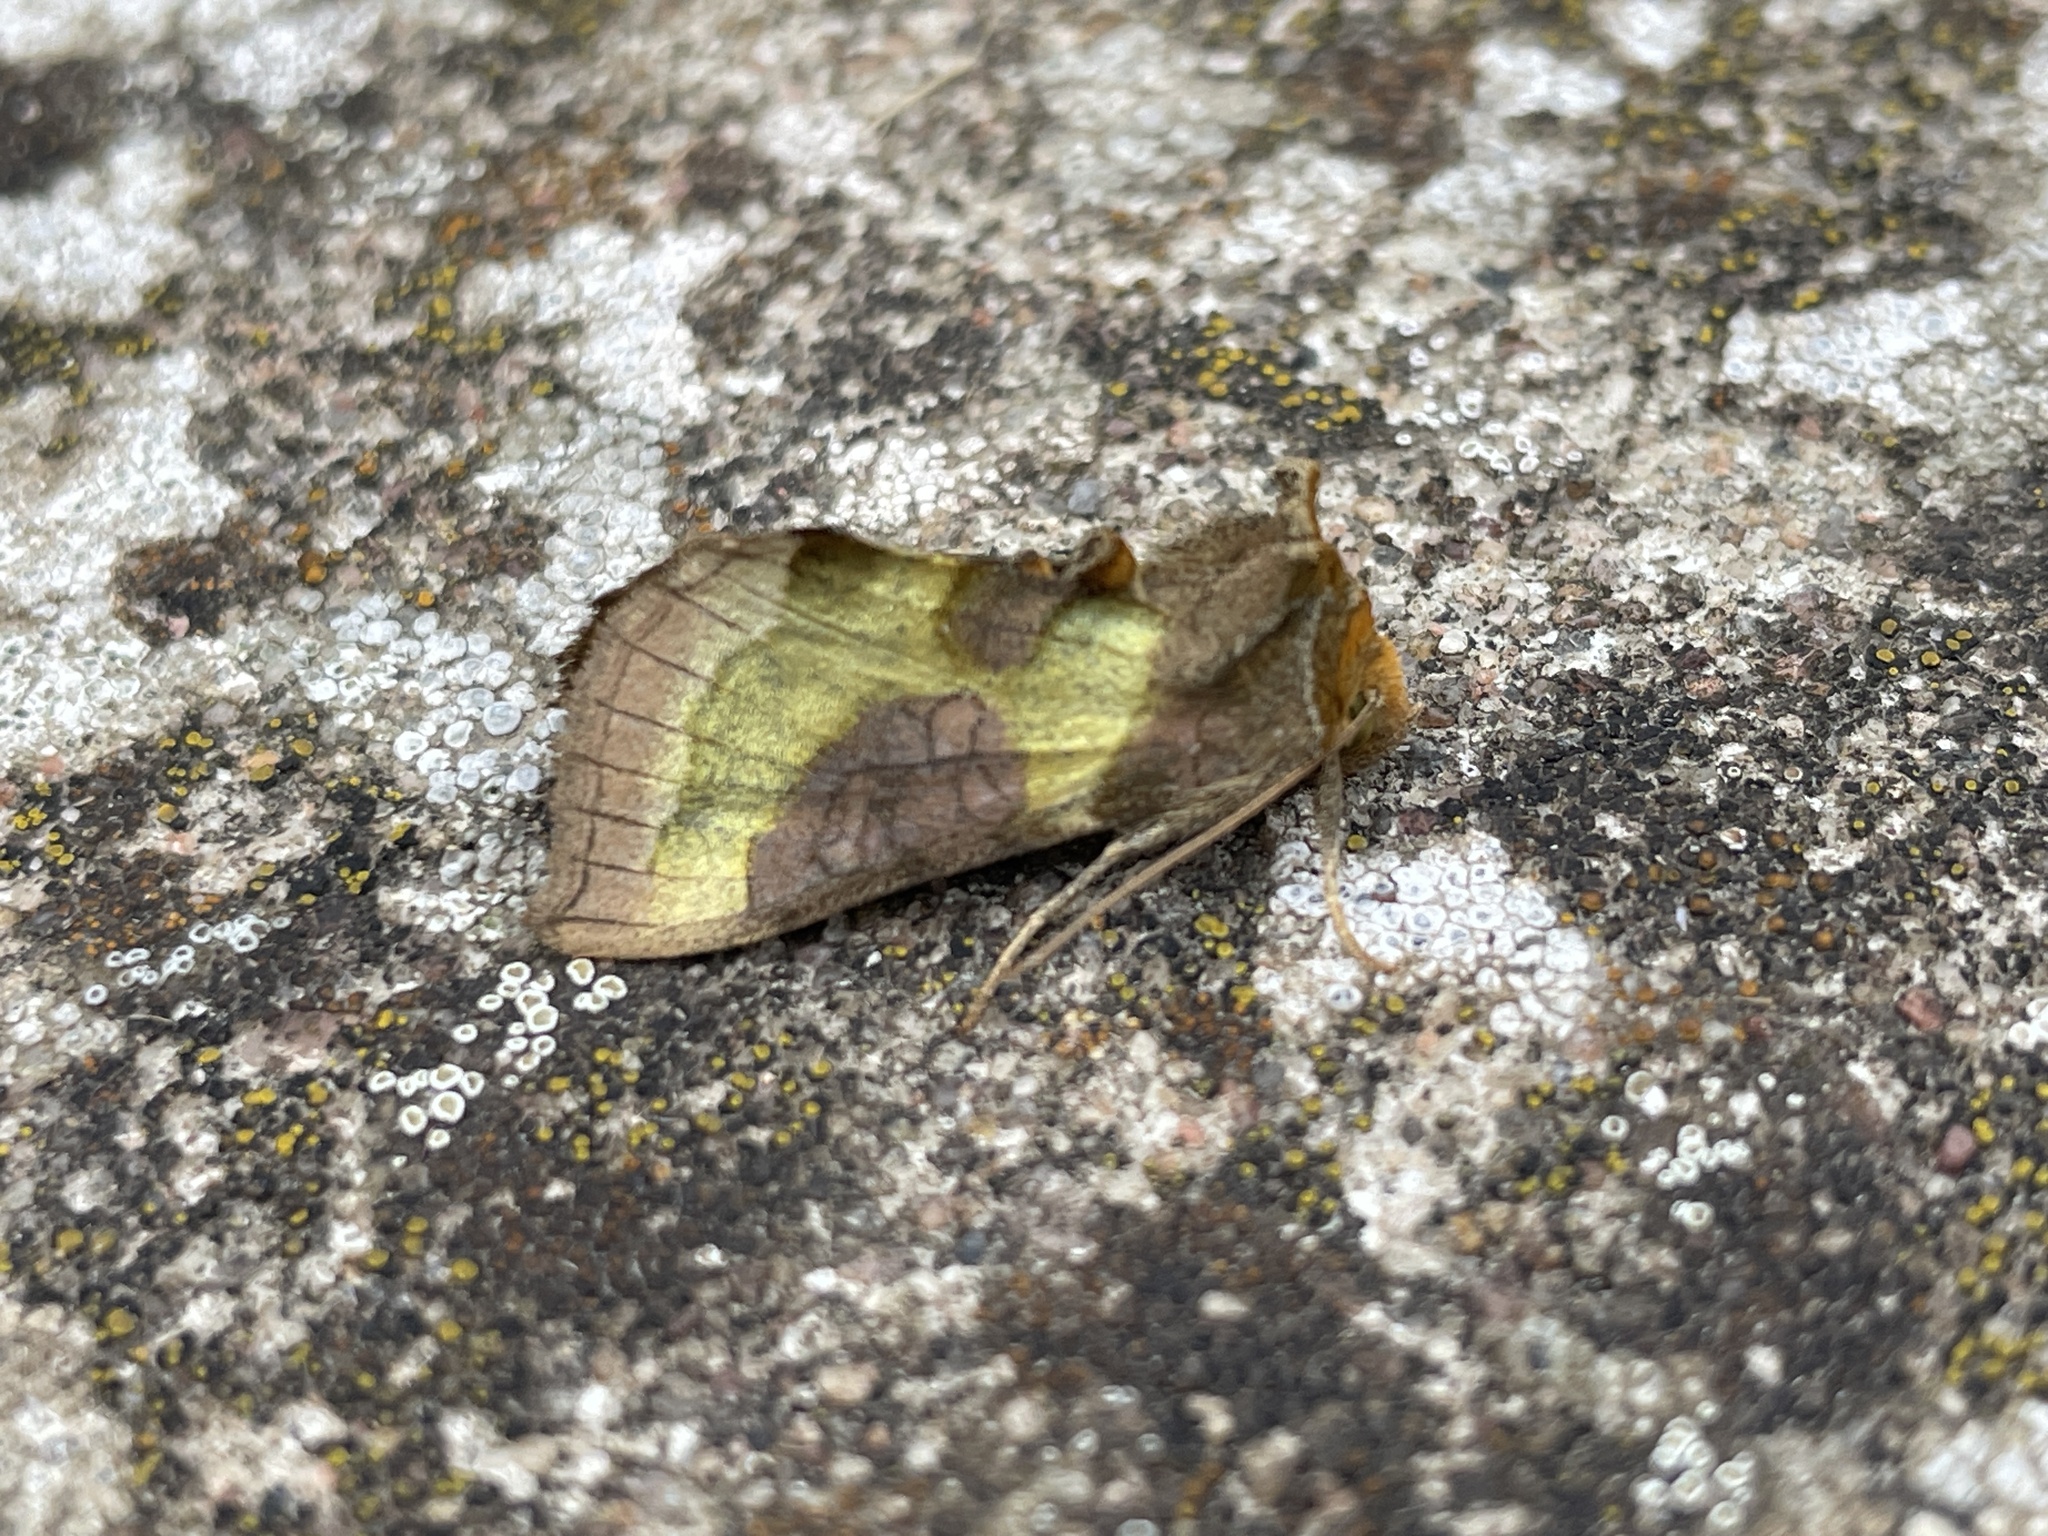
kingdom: Animalia
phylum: Arthropoda
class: Insecta
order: Lepidoptera
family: Noctuidae
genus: Diachrysia
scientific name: Diachrysia stenochrysis
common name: Cryptic burnished brass
